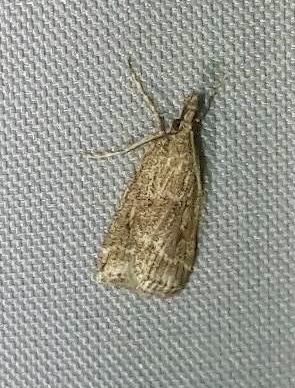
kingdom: Animalia
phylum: Arthropoda
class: Insecta
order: Lepidoptera
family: Crambidae
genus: Eudonia
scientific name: Eudonia truncicolella
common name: Ground-moss grey
